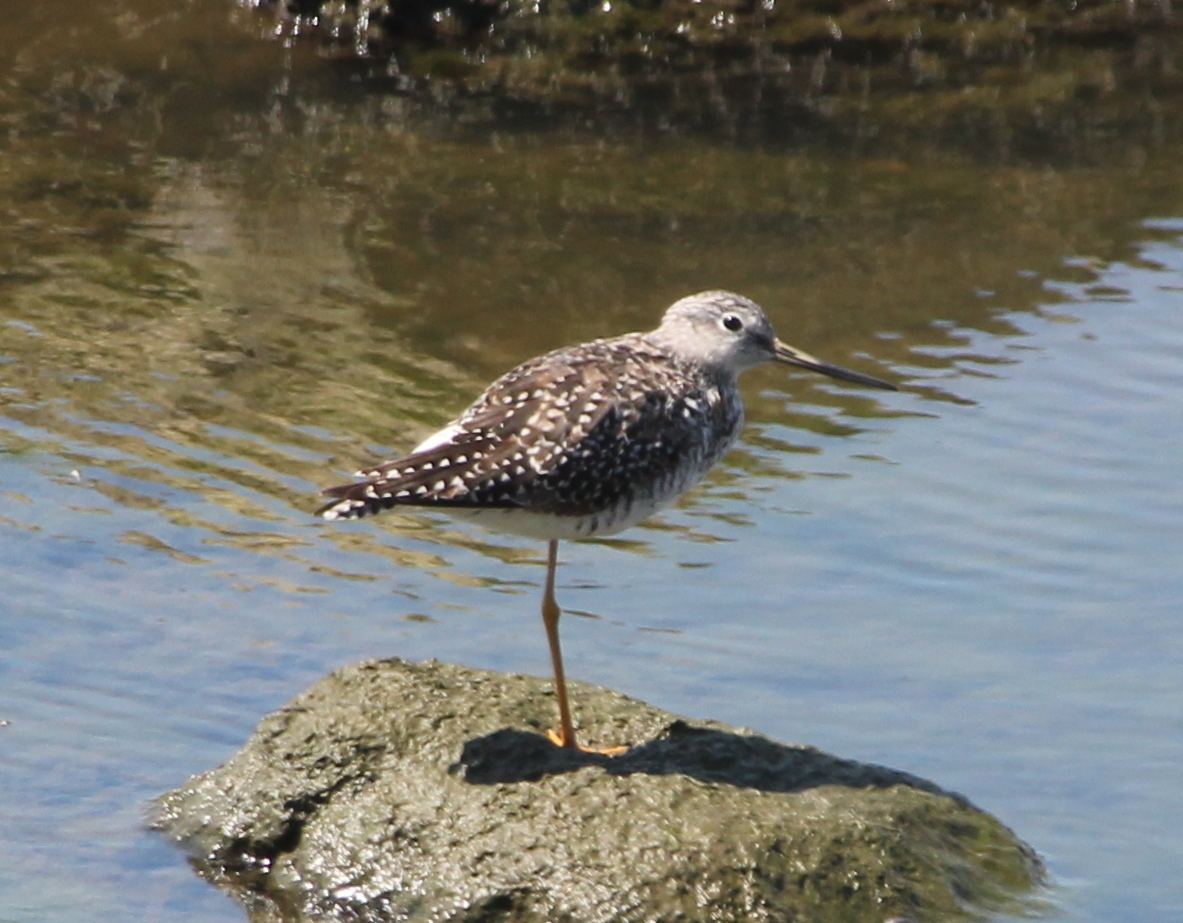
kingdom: Animalia
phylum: Chordata
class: Aves
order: Charadriiformes
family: Scolopacidae
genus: Tringa
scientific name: Tringa melanoleuca
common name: Greater yellowlegs
